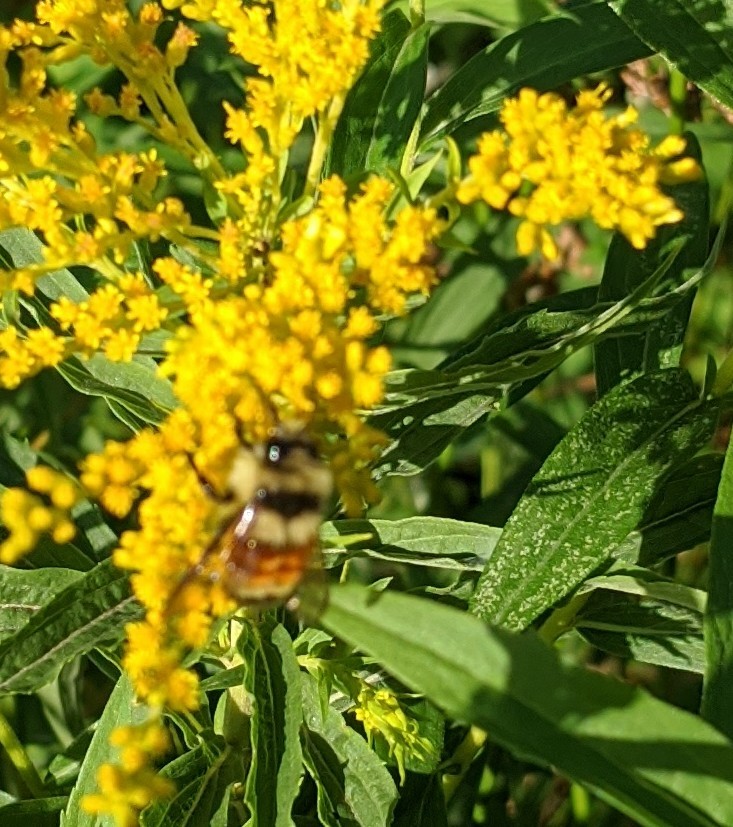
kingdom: Animalia
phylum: Arthropoda
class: Insecta
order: Hymenoptera
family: Apidae
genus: Bombus
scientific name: Bombus ternarius
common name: Tri-colored bumble bee
